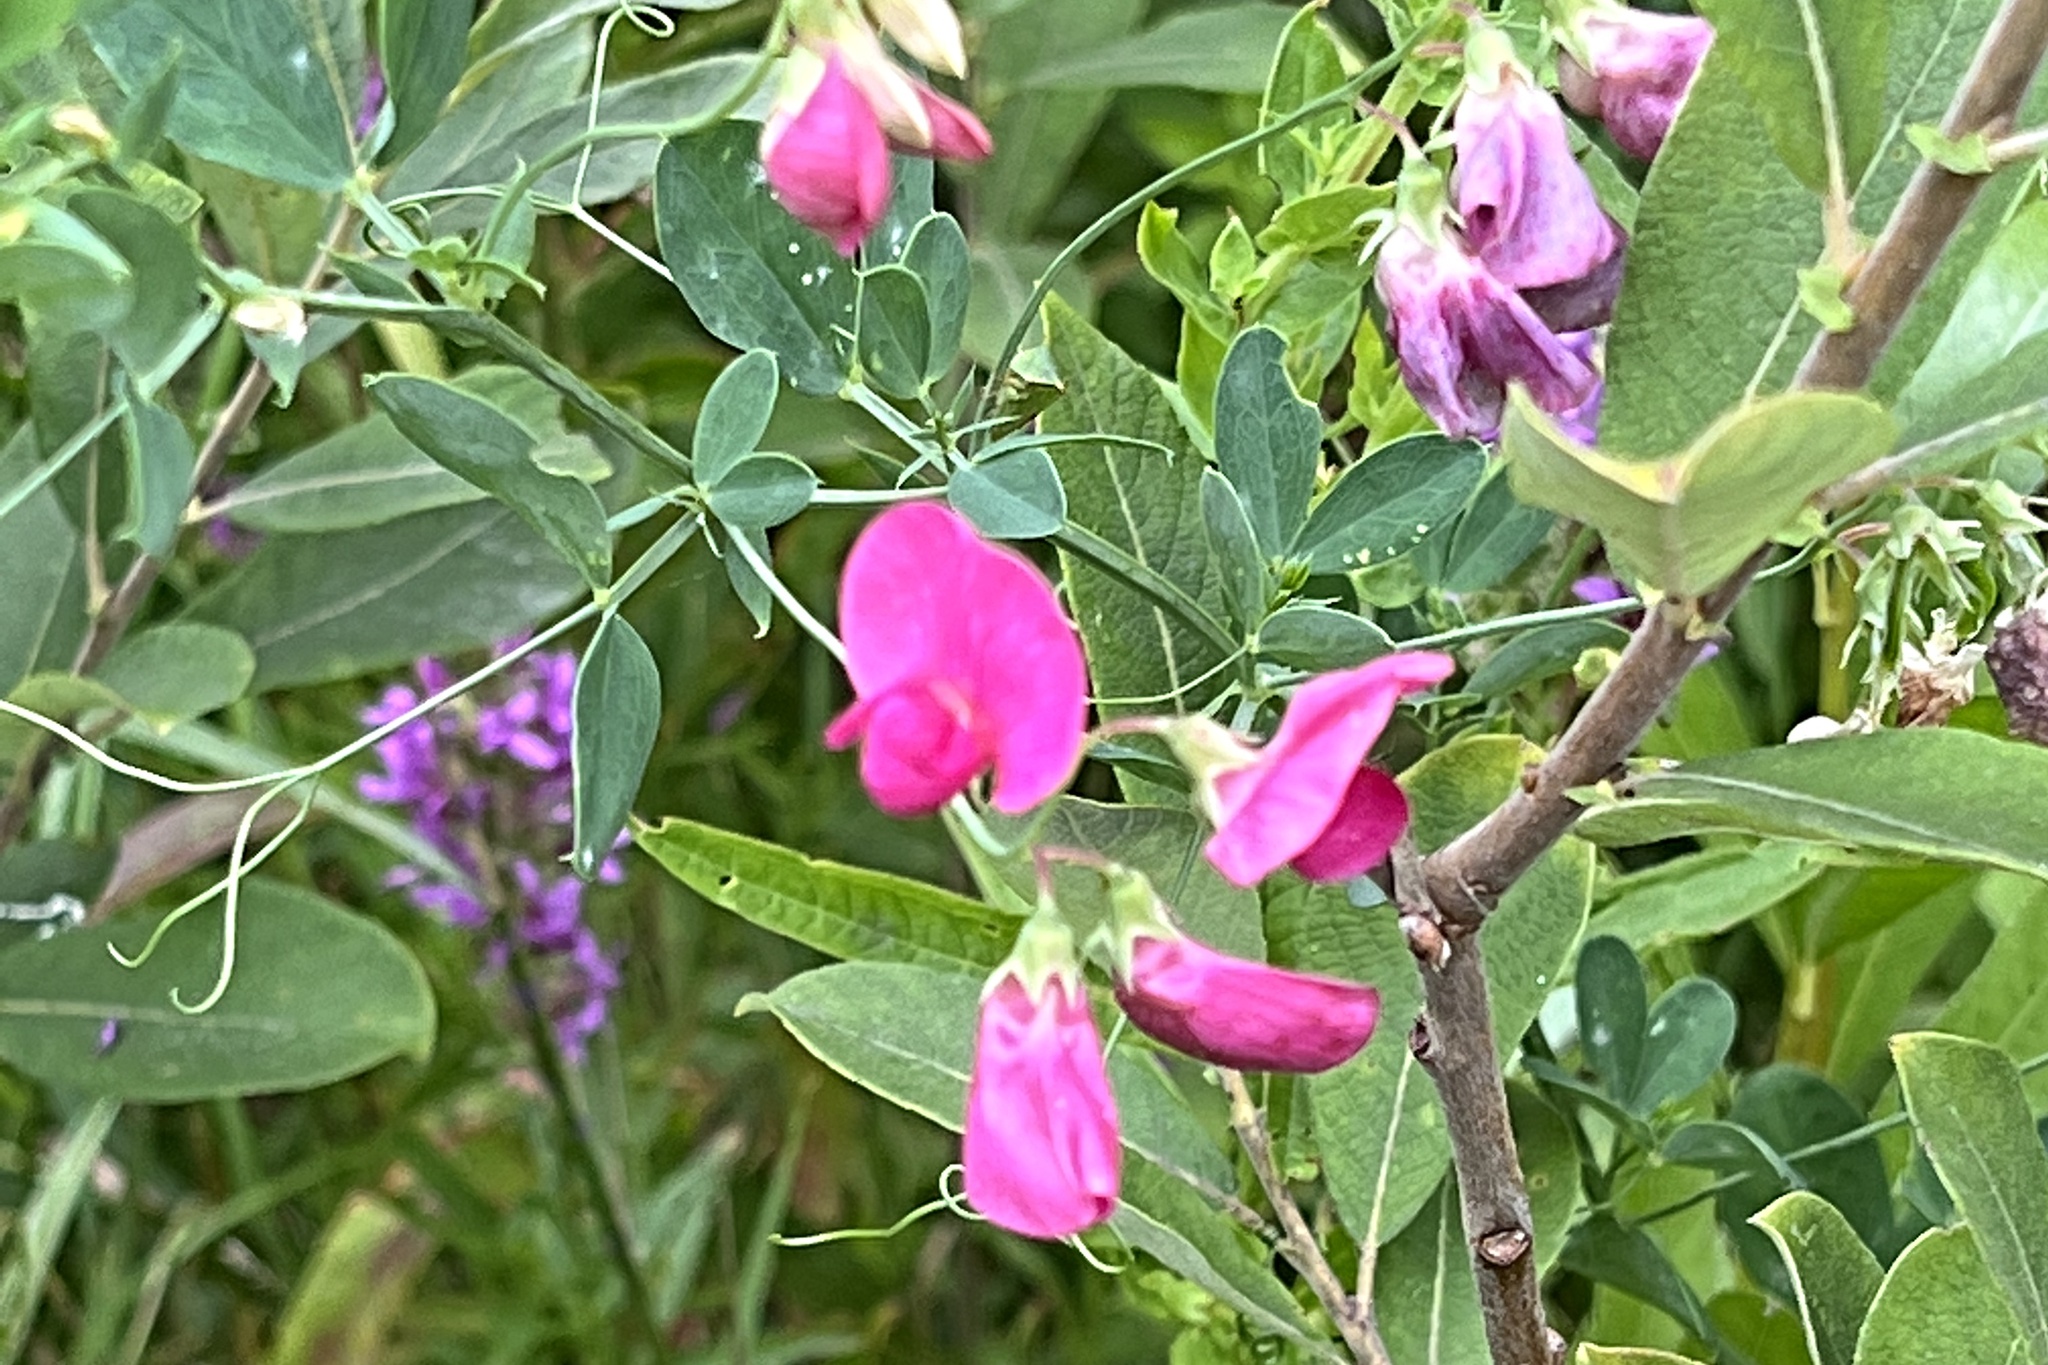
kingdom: Plantae
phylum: Tracheophyta
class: Magnoliopsida
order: Fabales
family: Fabaceae
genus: Lathyrus
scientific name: Lathyrus tuberosus
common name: Tuberous pea
